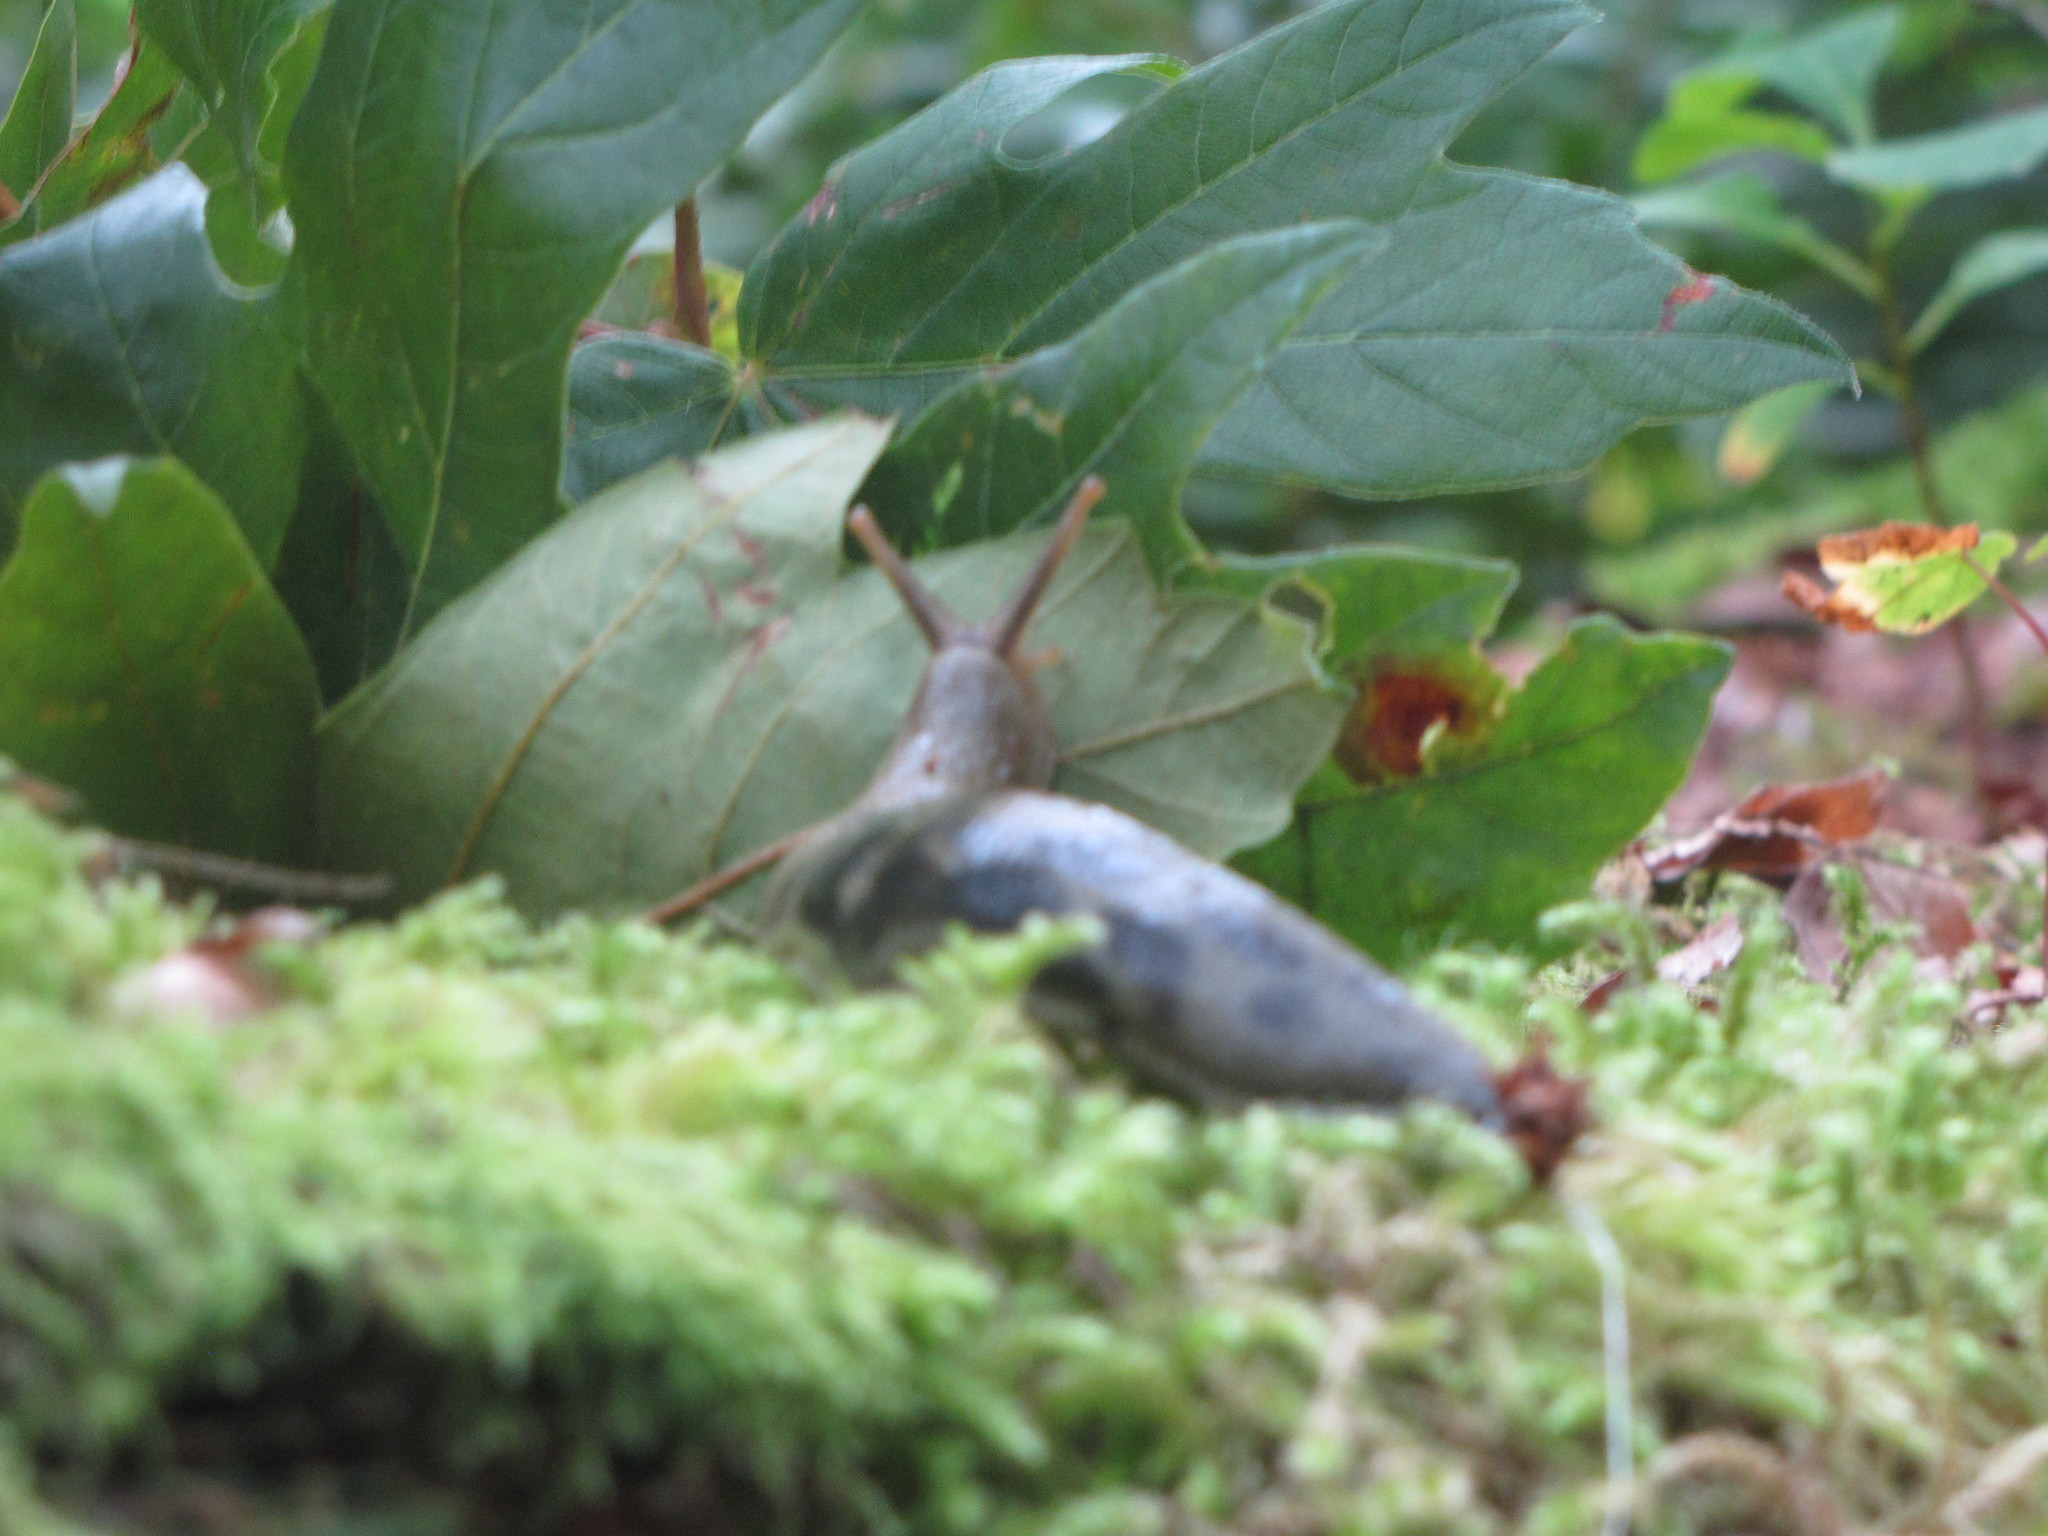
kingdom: Animalia
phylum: Mollusca
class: Gastropoda
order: Stylommatophora
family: Ariolimacidae
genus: Ariolimax
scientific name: Ariolimax columbianus
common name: Pacific banana slug
